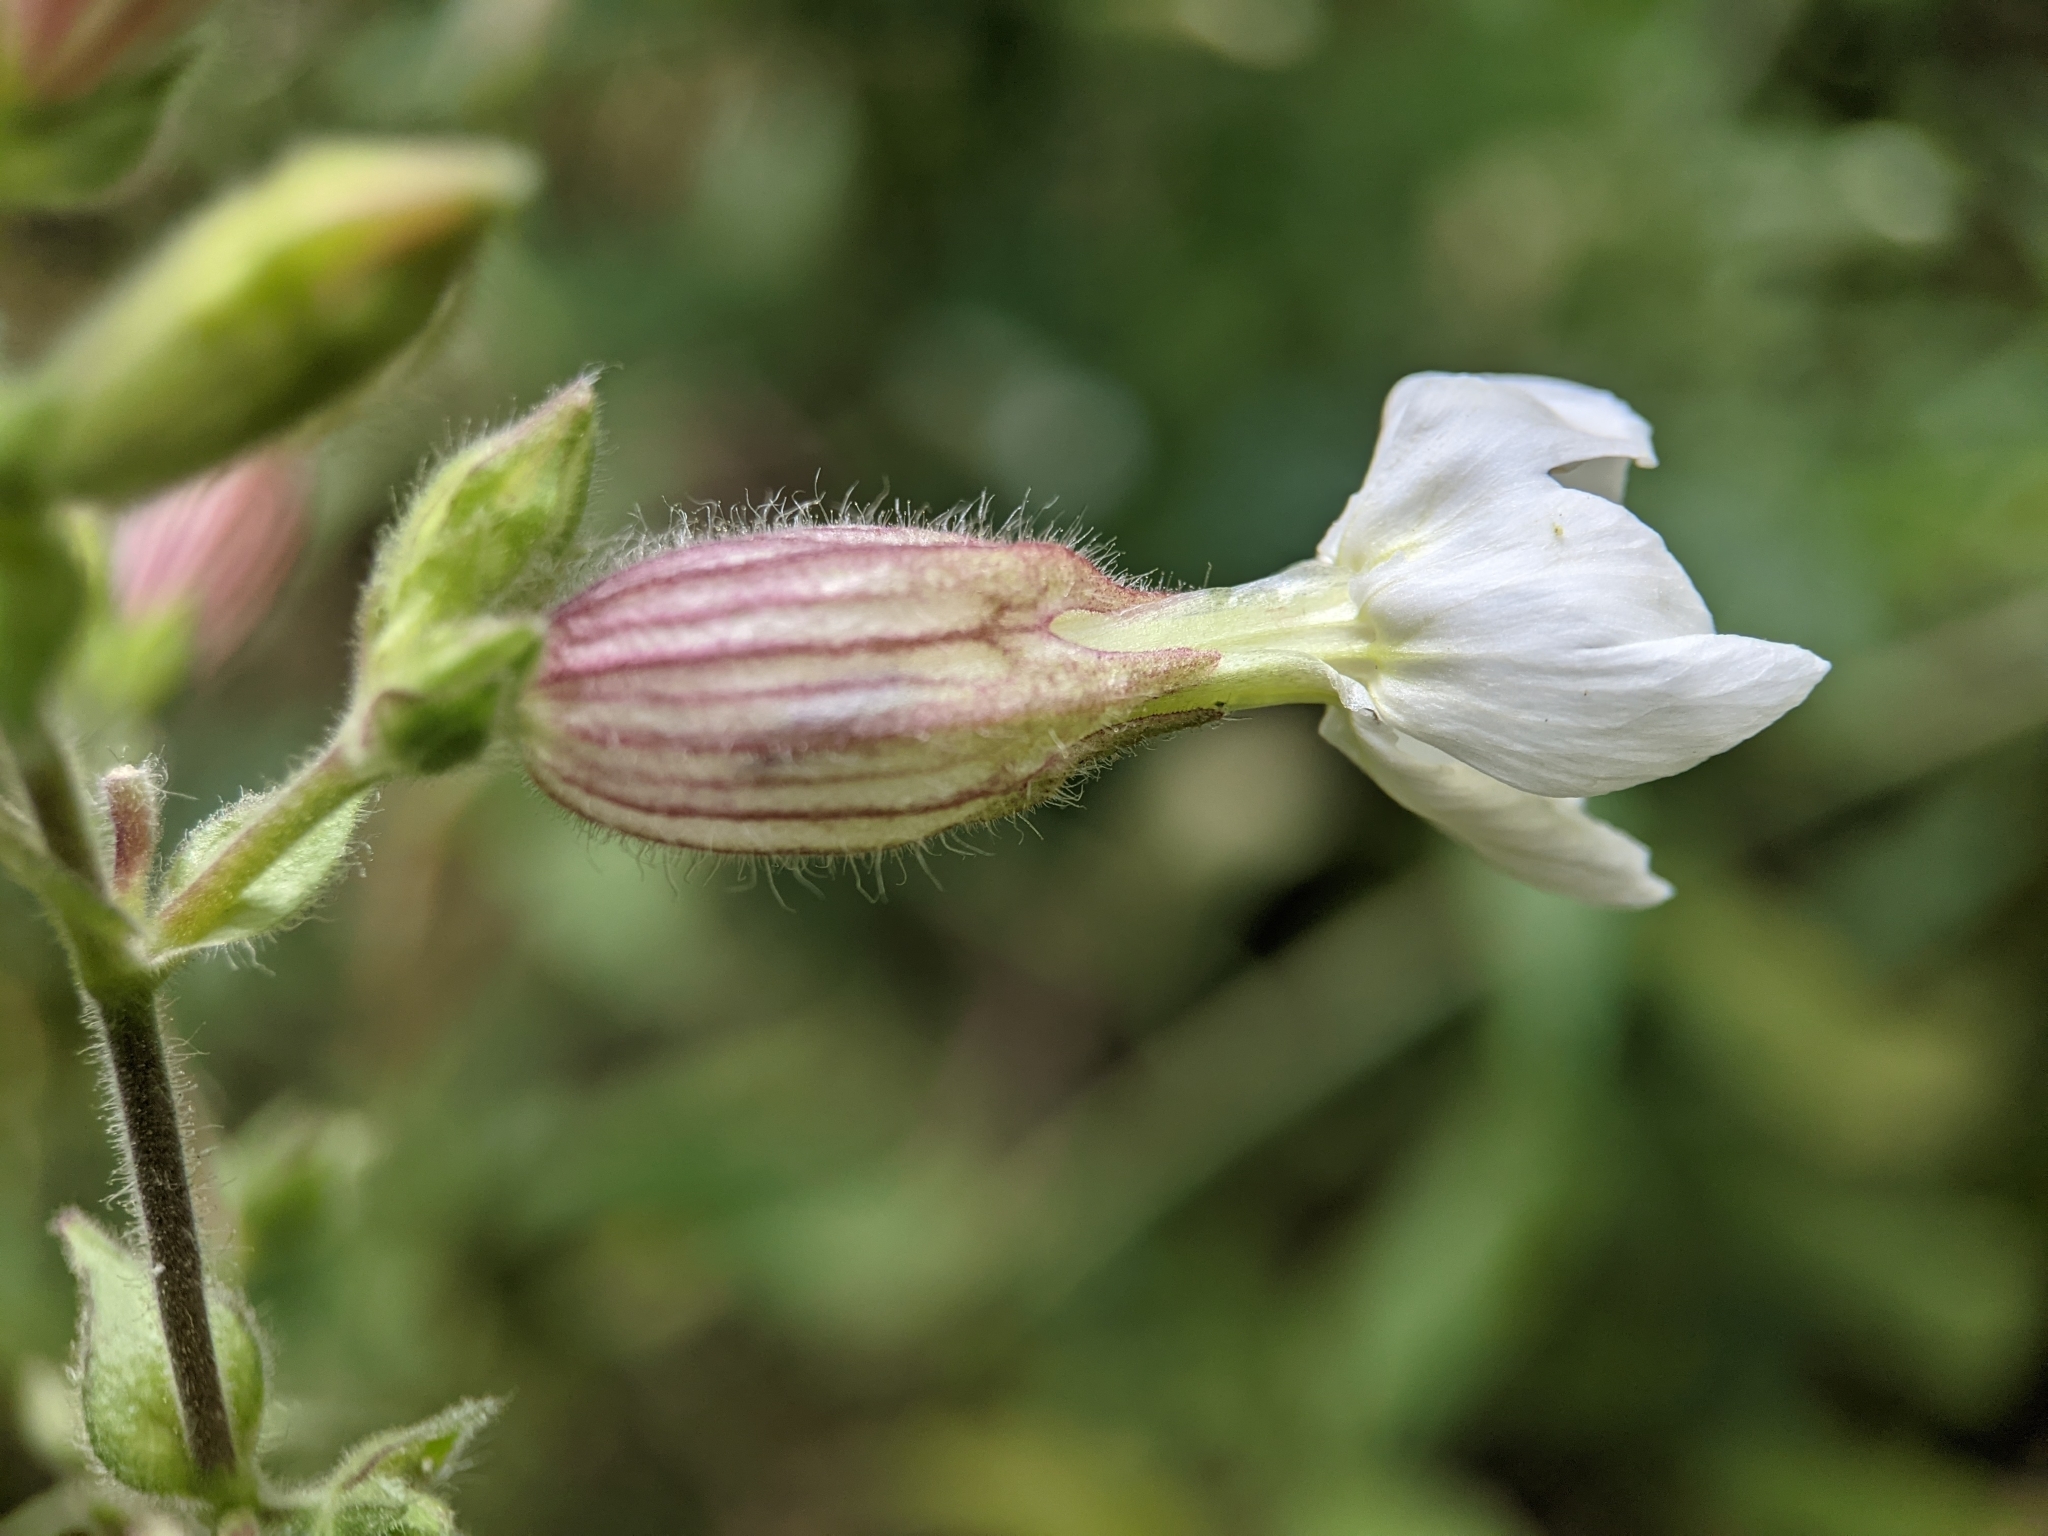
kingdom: Plantae
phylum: Tracheophyta
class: Magnoliopsida
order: Caryophyllales
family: Caryophyllaceae
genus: Silene
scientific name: Silene latifolia
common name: White campion
